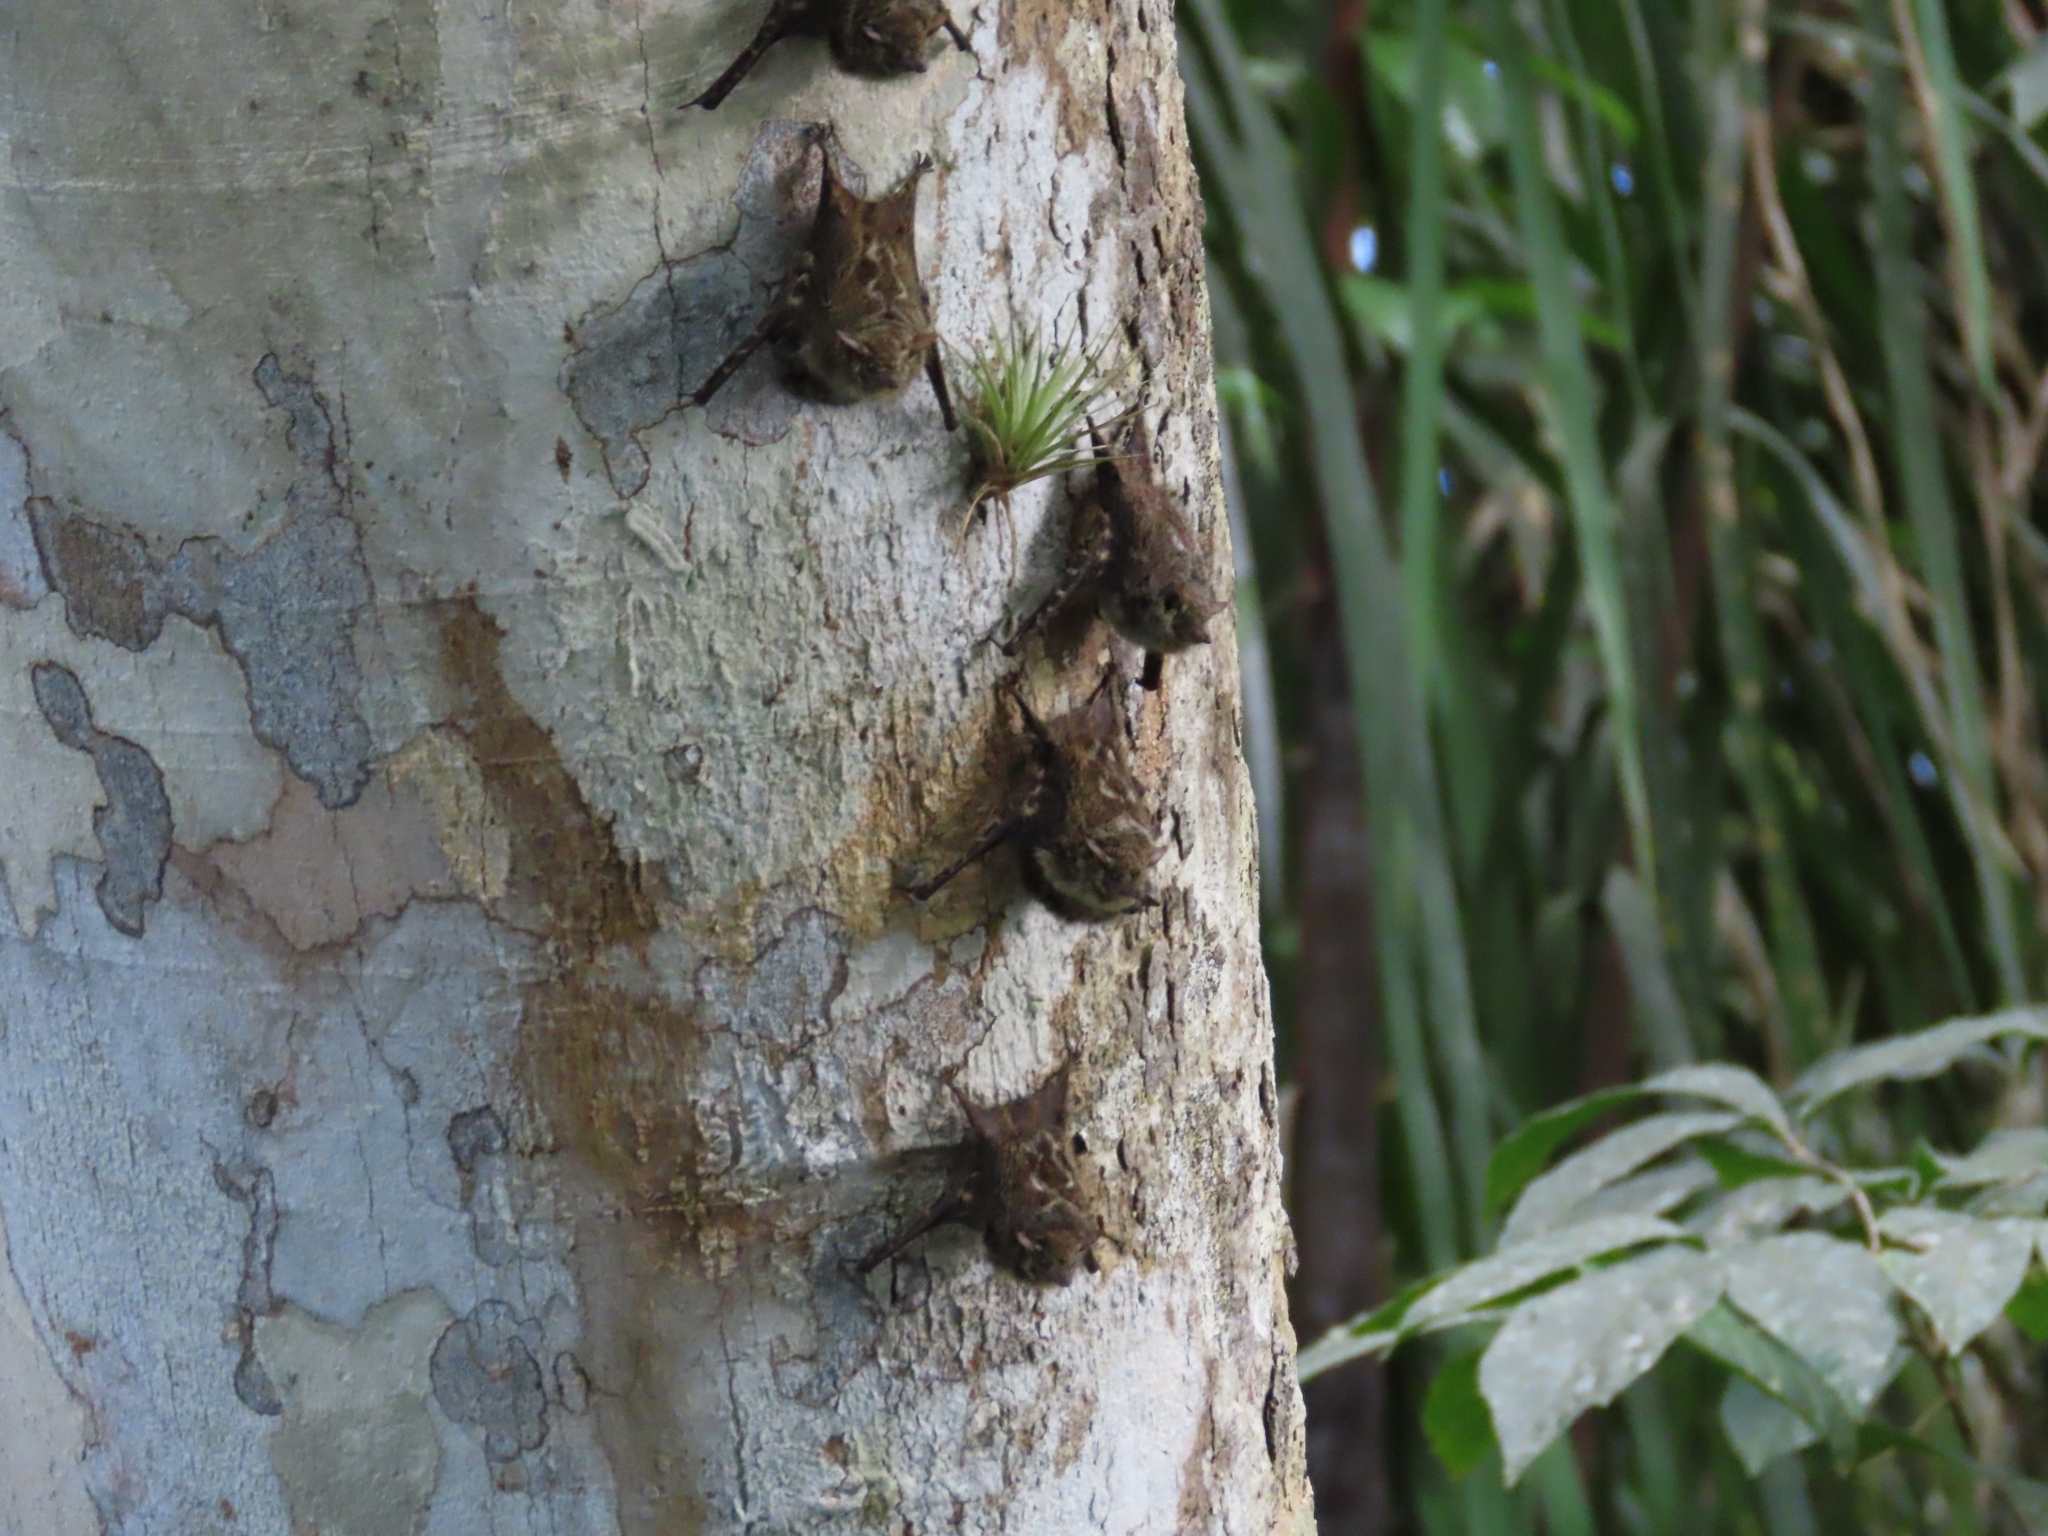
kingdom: Animalia
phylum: Chordata
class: Mammalia
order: Chiroptera
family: Emballonuridae
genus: Rhynchonycteris
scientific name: Rhynchonycteris naso
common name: Proboscis bat
